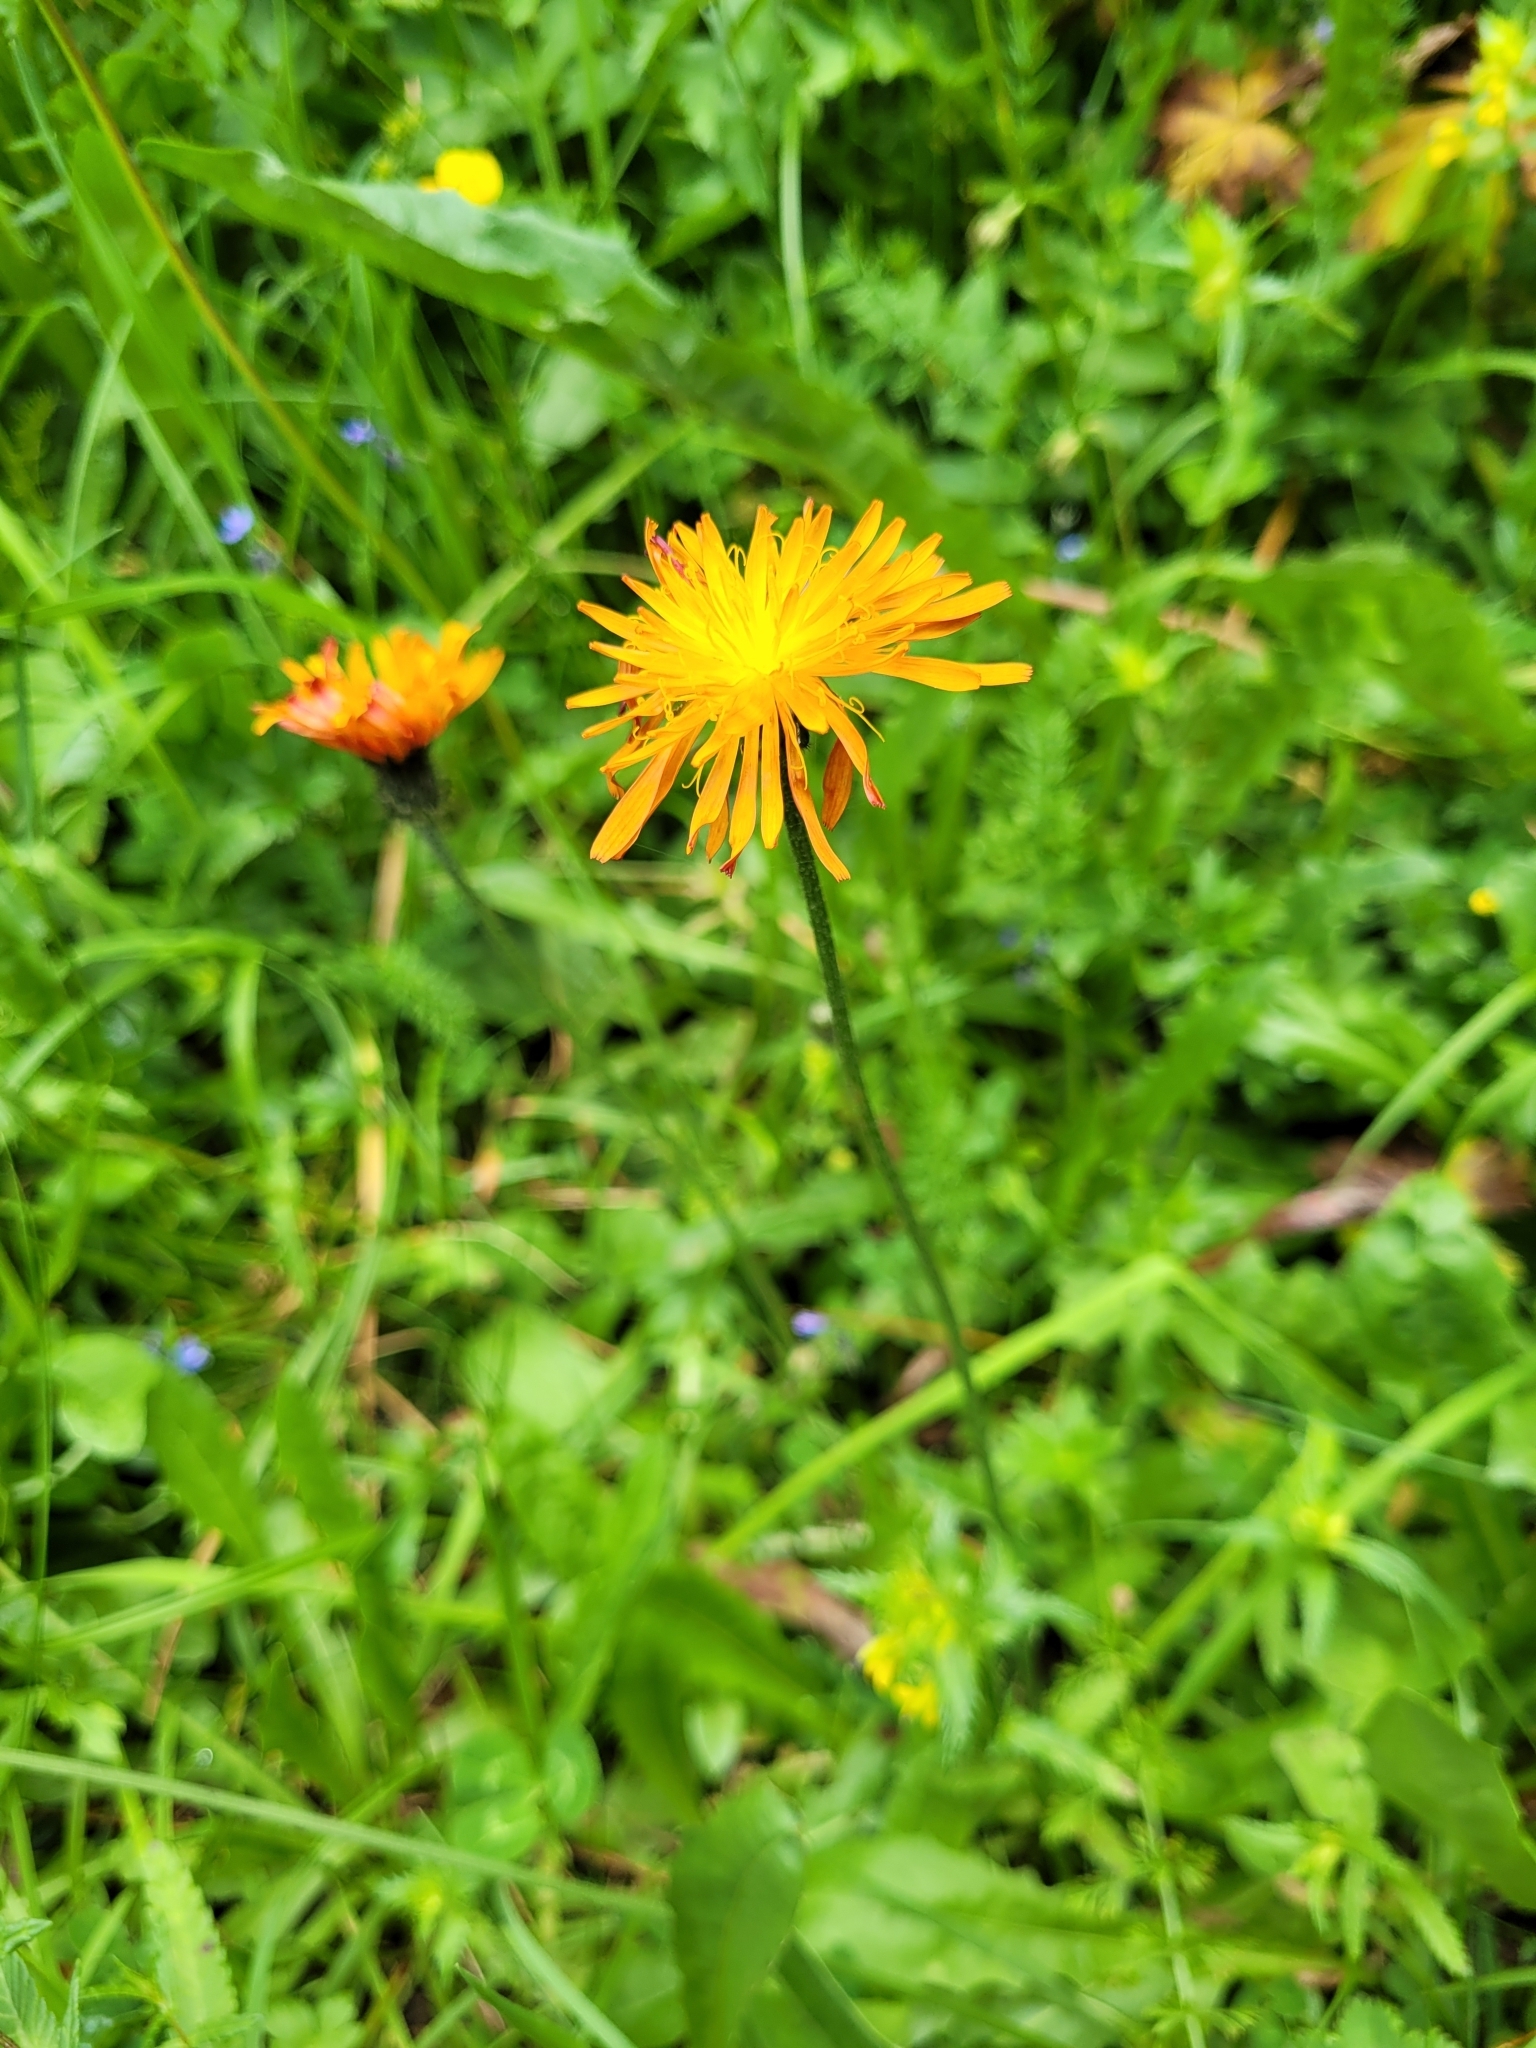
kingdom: Plantae
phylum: Tracheophyta
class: Magnoliopsida
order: Asterales
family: Asteraceae
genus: Crepis
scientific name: Crepis aurea
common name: Golden hawk's-beard
